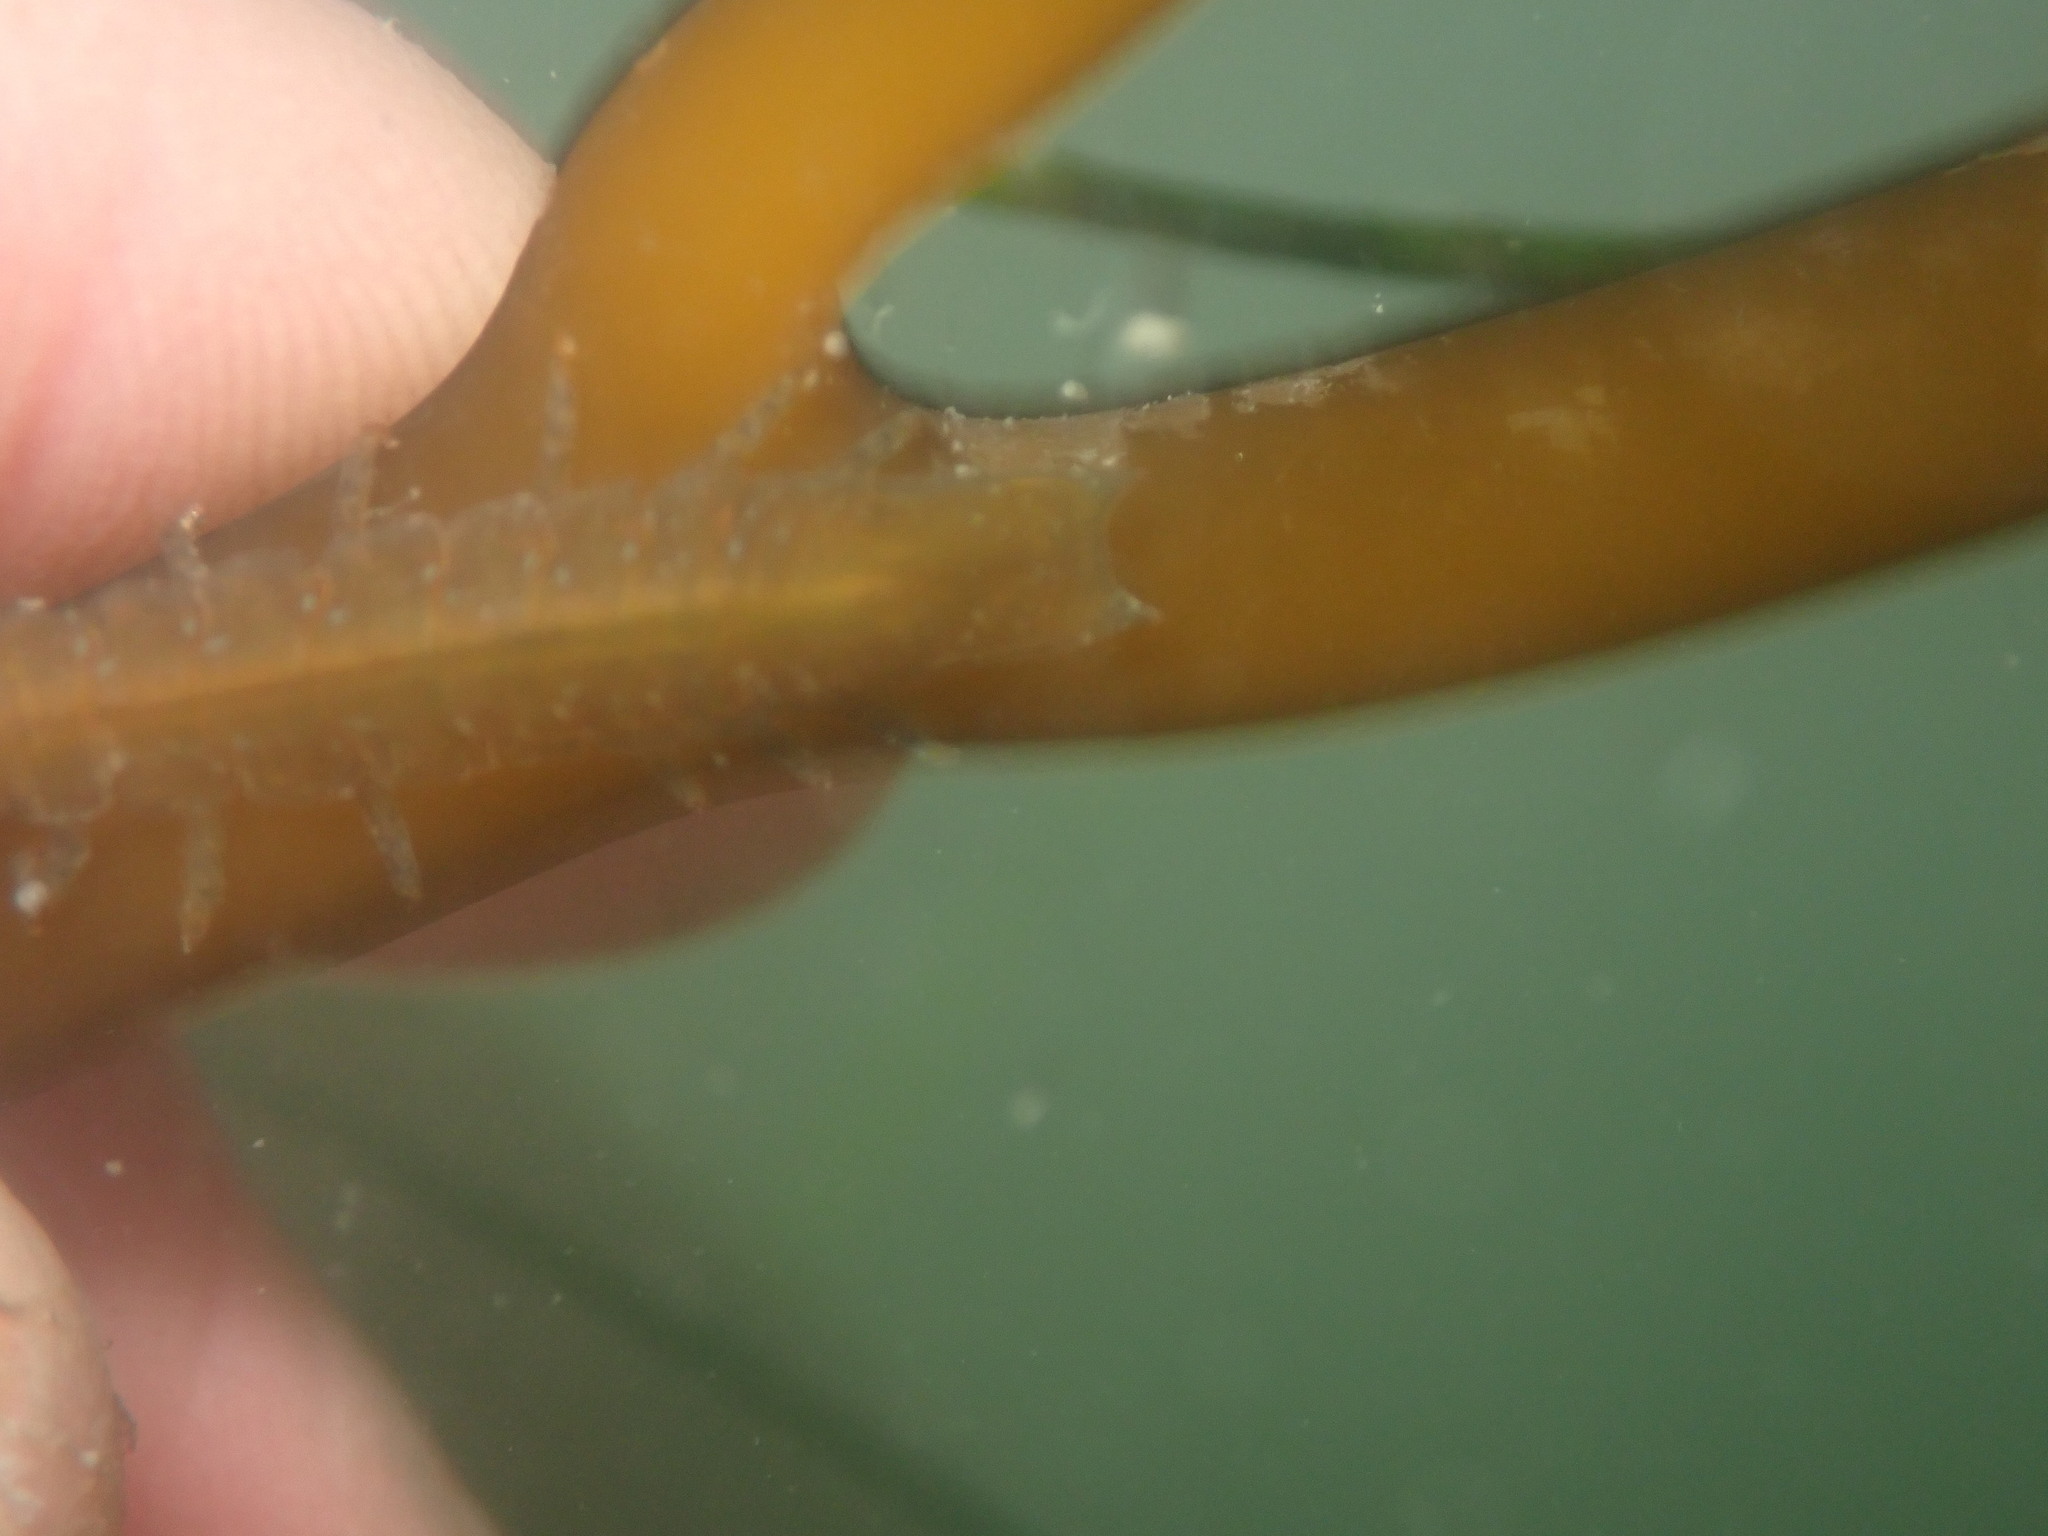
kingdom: Animalia
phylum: Arthropoda
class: Malacostraca
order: Isopoda
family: Idoteidae
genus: Pentidotea
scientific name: Pentidotea resecata
